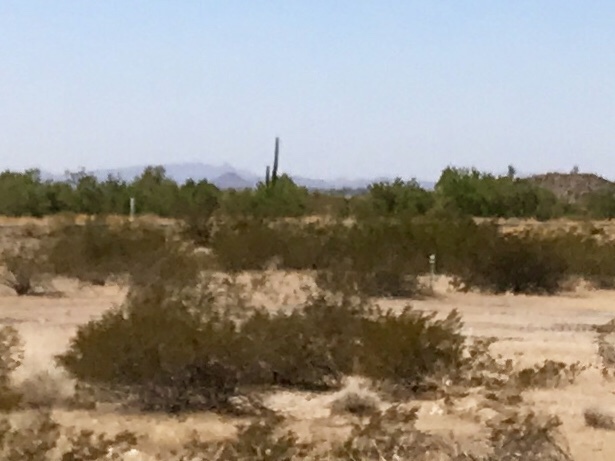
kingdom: Plantae
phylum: Tracheophyta
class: Magnoliopsida
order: Zygophyllales
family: Zygophyllaceae
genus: Larrea
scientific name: Larrea tridentata
